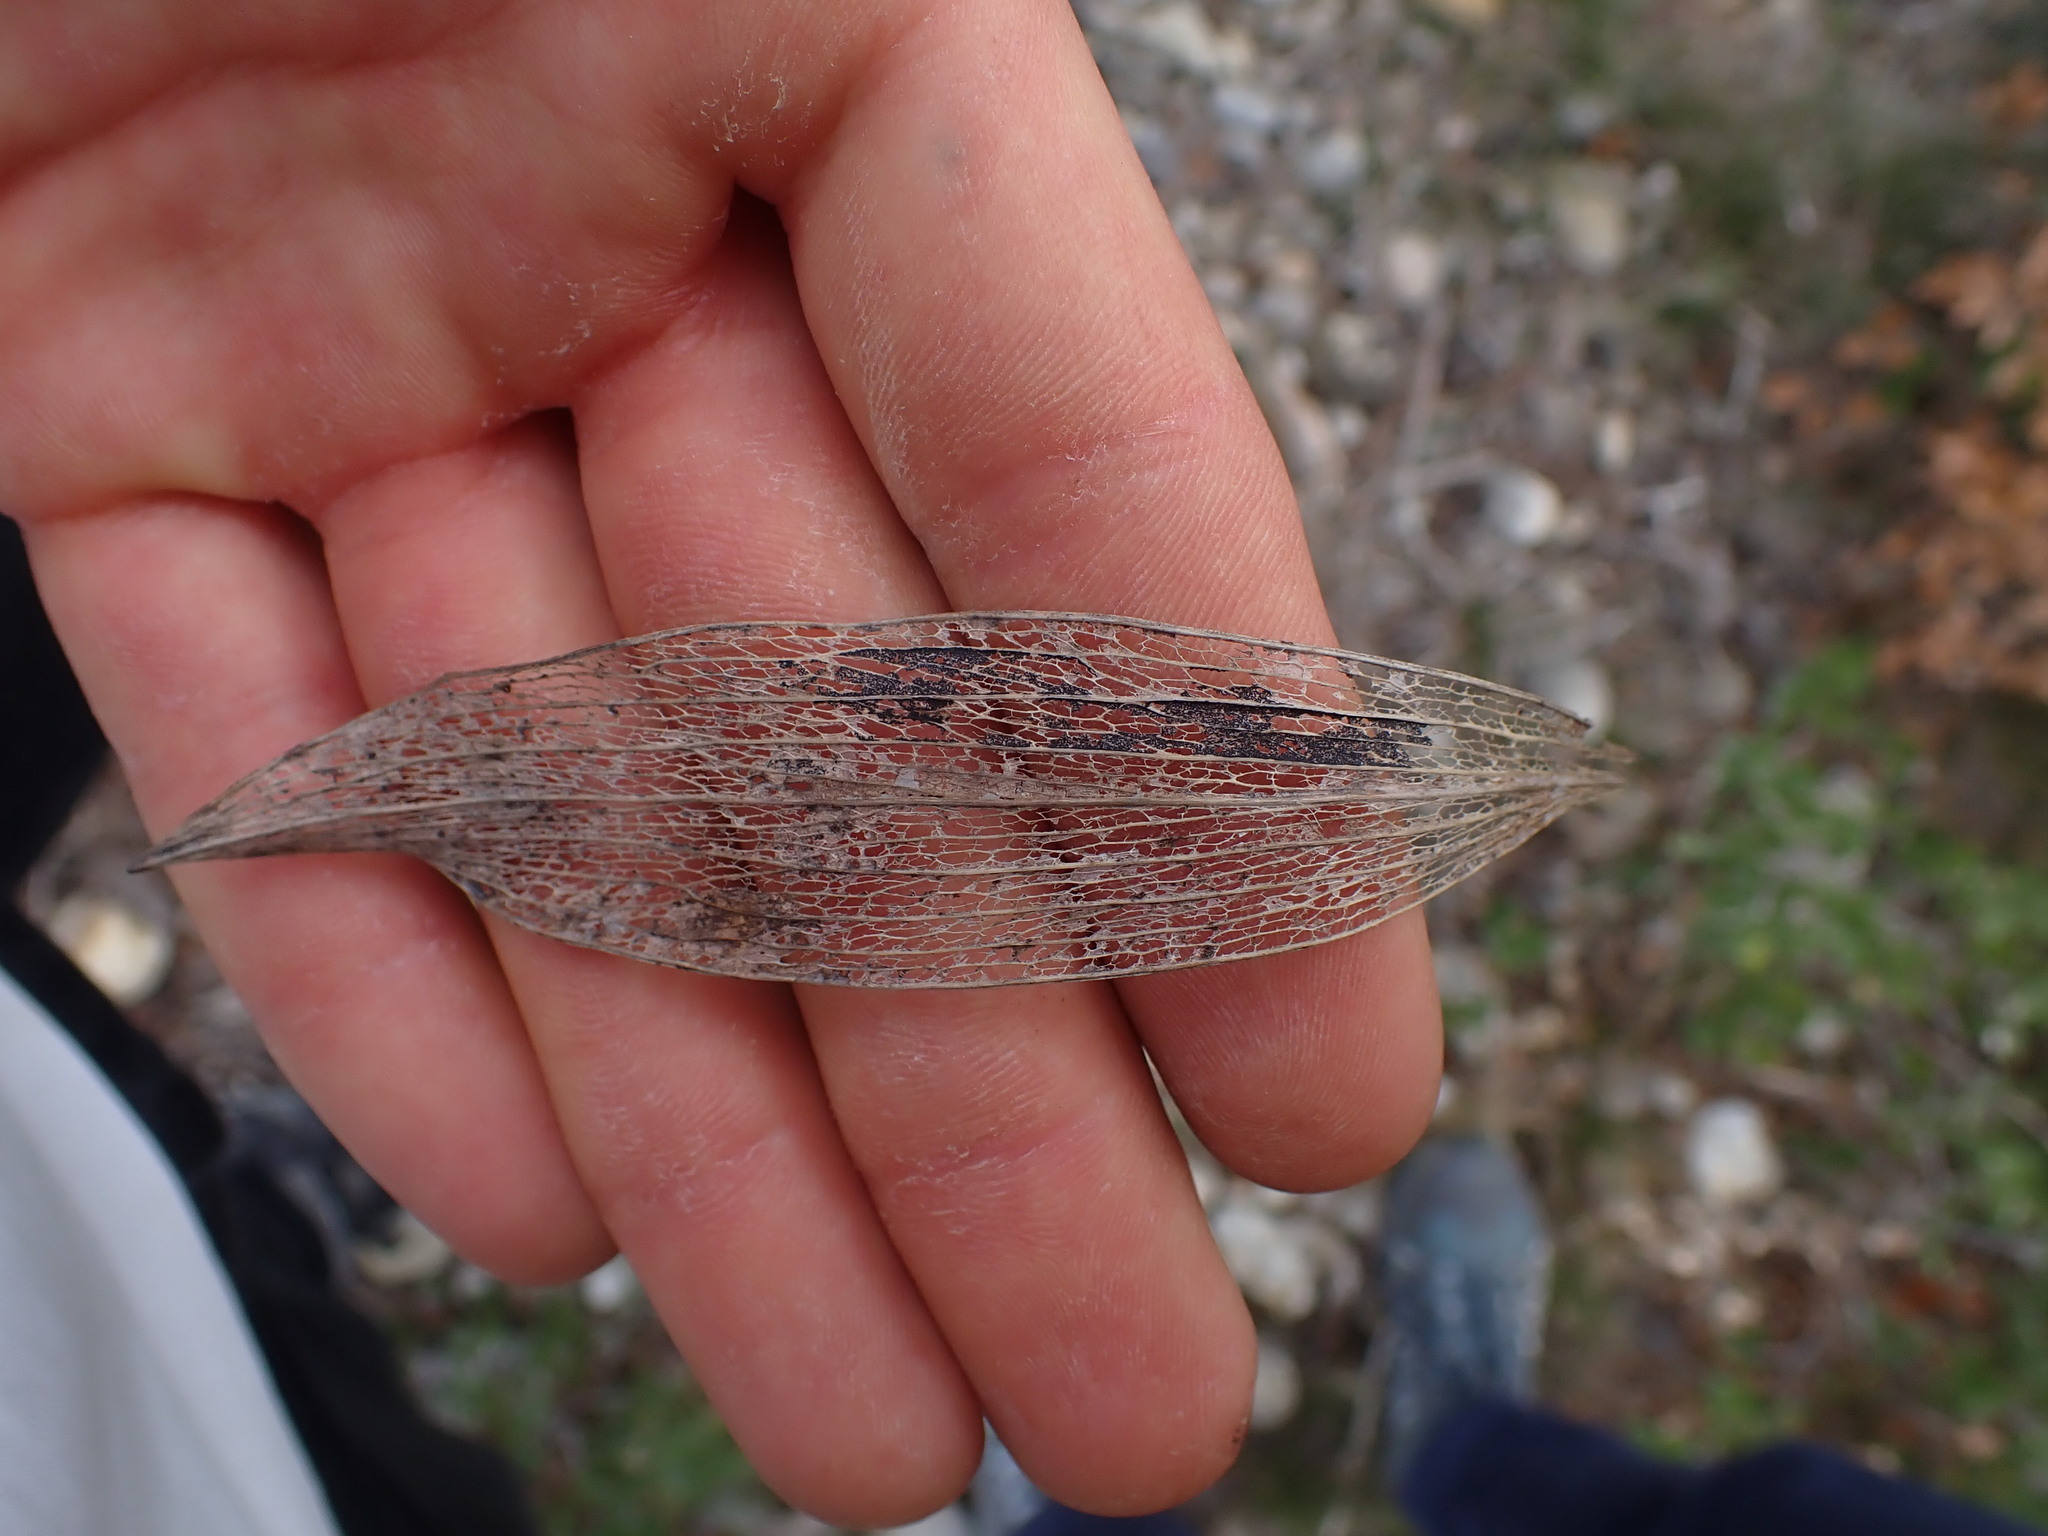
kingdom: Plantae
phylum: Tracheophyta
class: Magnoliopsida
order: Apiales
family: Apiaceae
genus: Bupleurum
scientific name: Bupleurum rigidum
